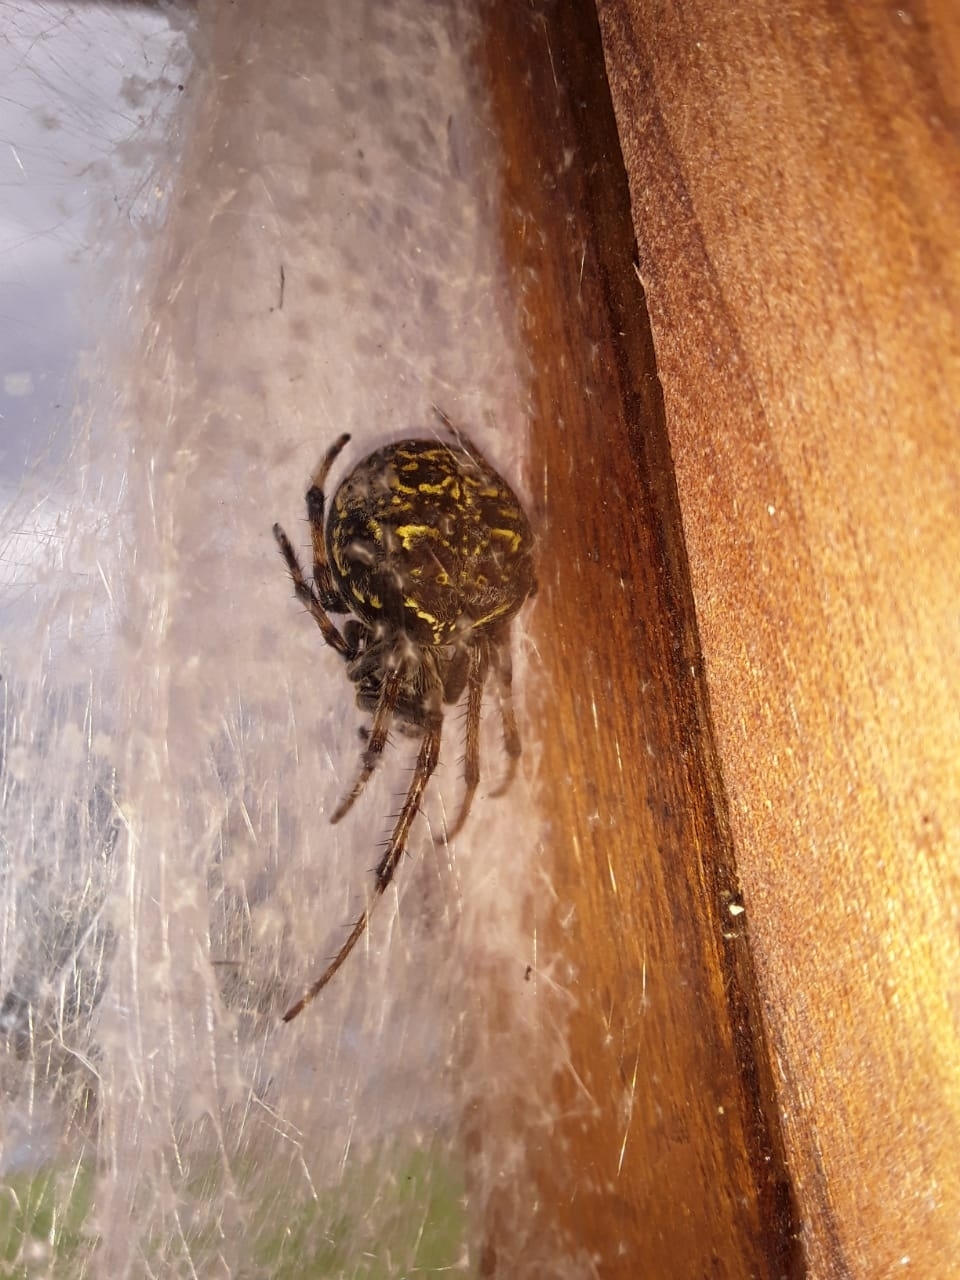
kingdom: Animalia
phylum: Arthropoda
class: Arachnida
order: Araneae
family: Araneidae
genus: Araneus
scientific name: Araneus granadensis
